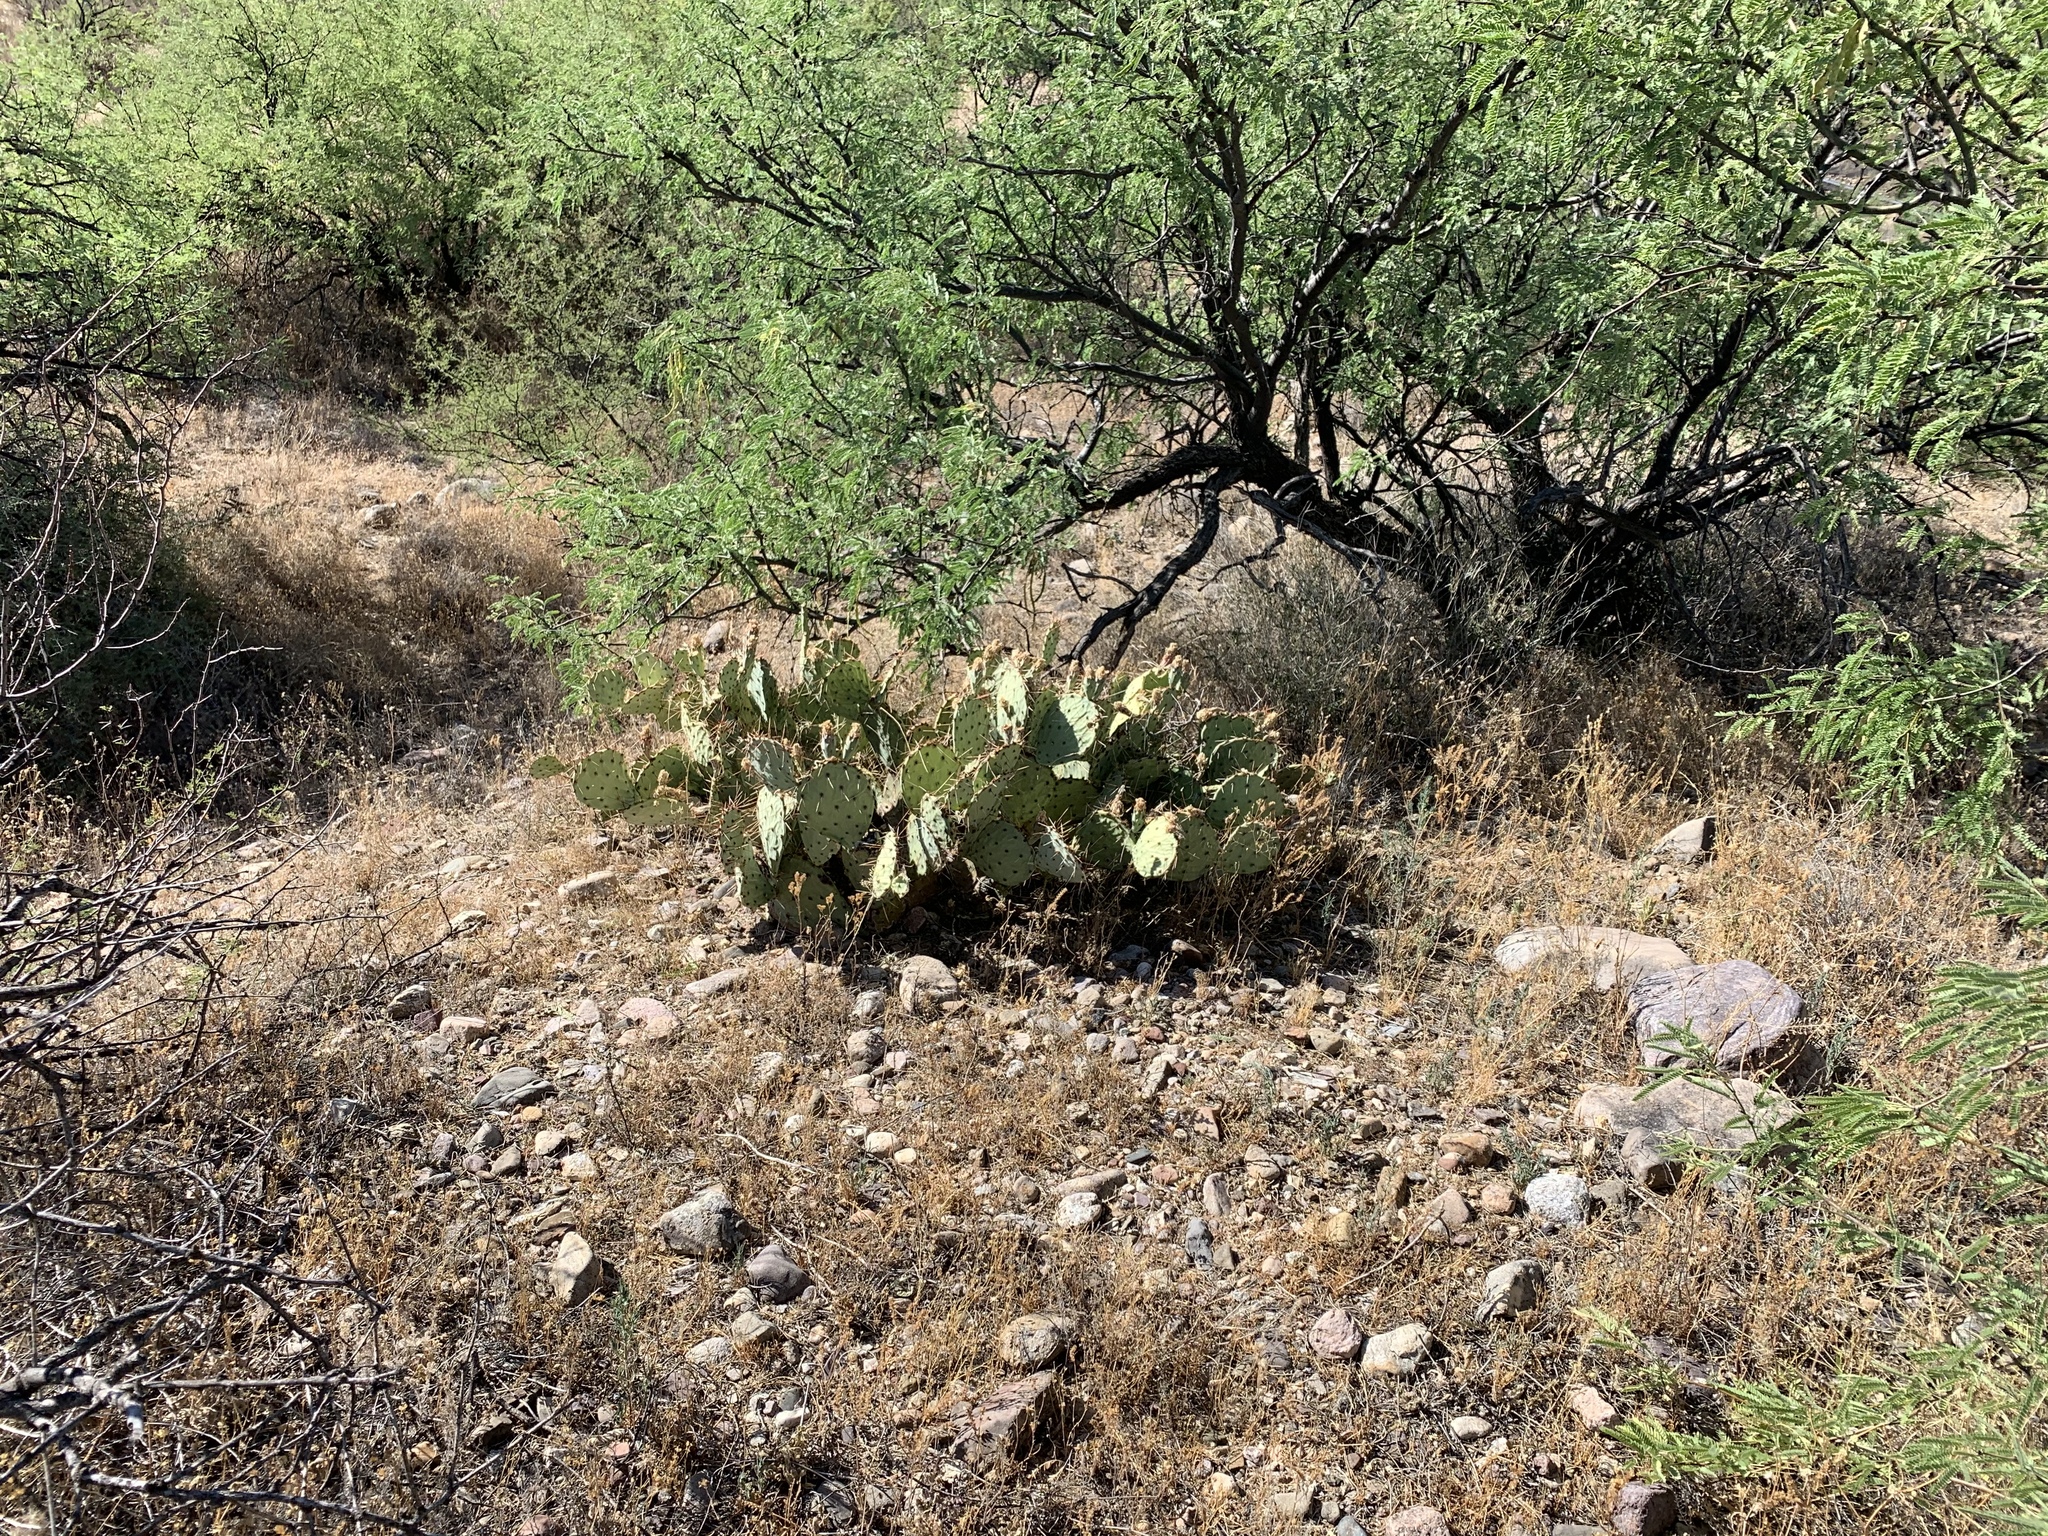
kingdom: Plantae
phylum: Tracheophyta
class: Magnoliopsida
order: Caryophyllales
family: Cactaceae
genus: Opuntia
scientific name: Opuntia phaeacantha
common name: New mexico prickly-pear
